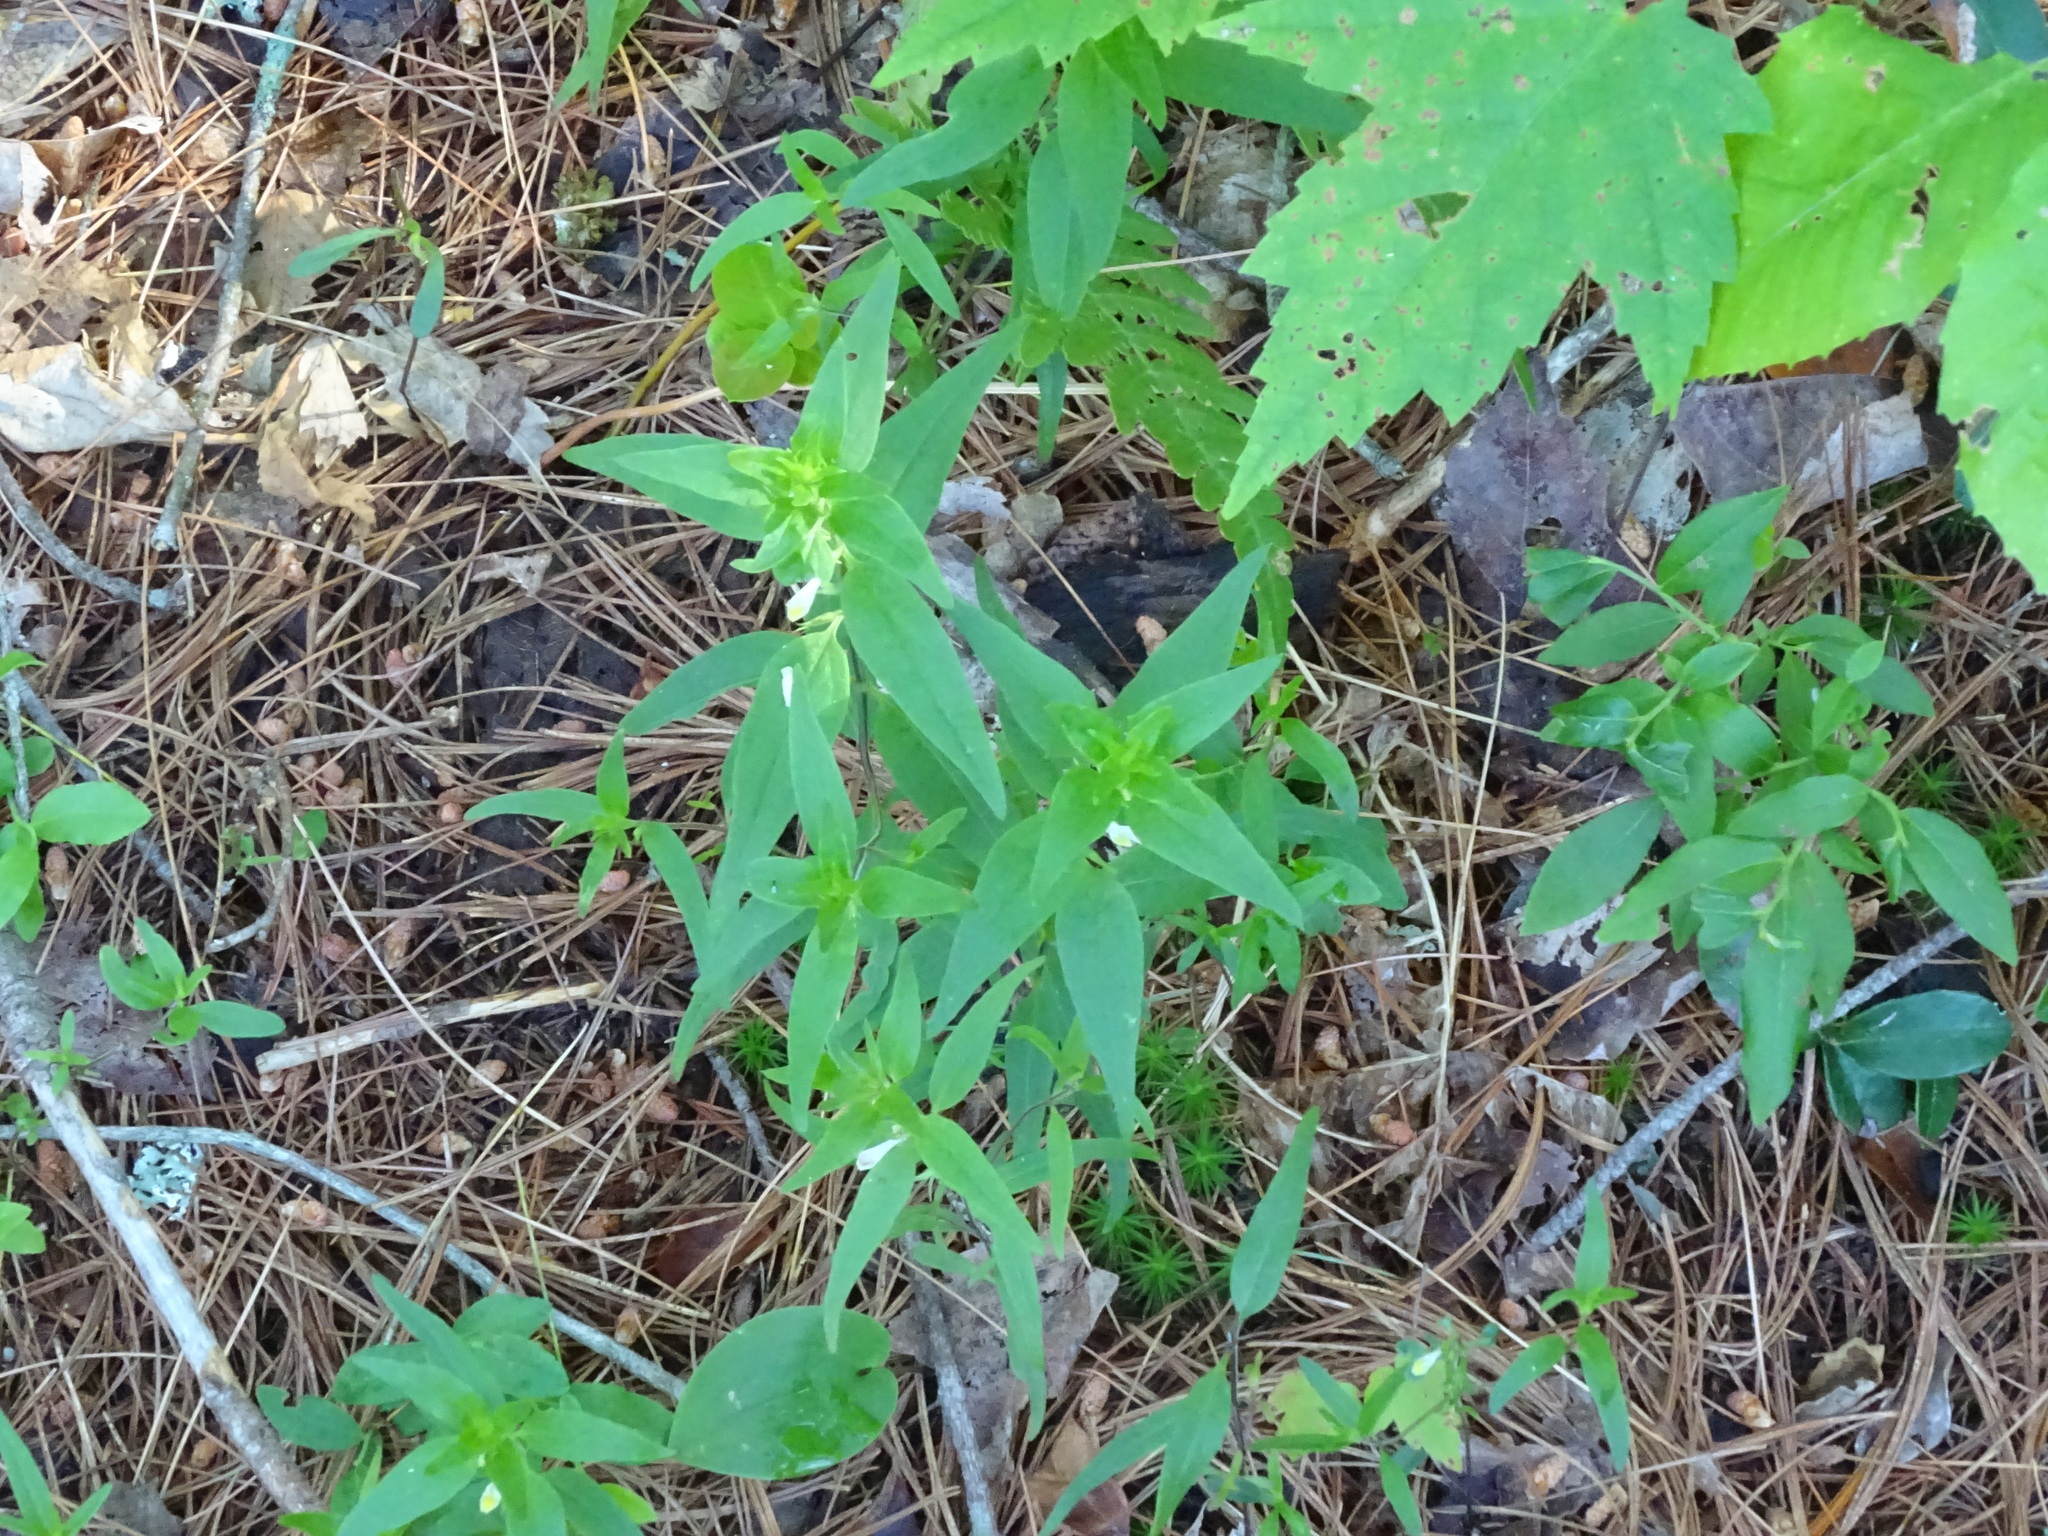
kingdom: Plantae
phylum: Tracheophyta
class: Magnoliopsida
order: Lamiales
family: Orobanchaceae
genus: Melampyrum
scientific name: Melampyrum lineare
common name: American cow-wheat
